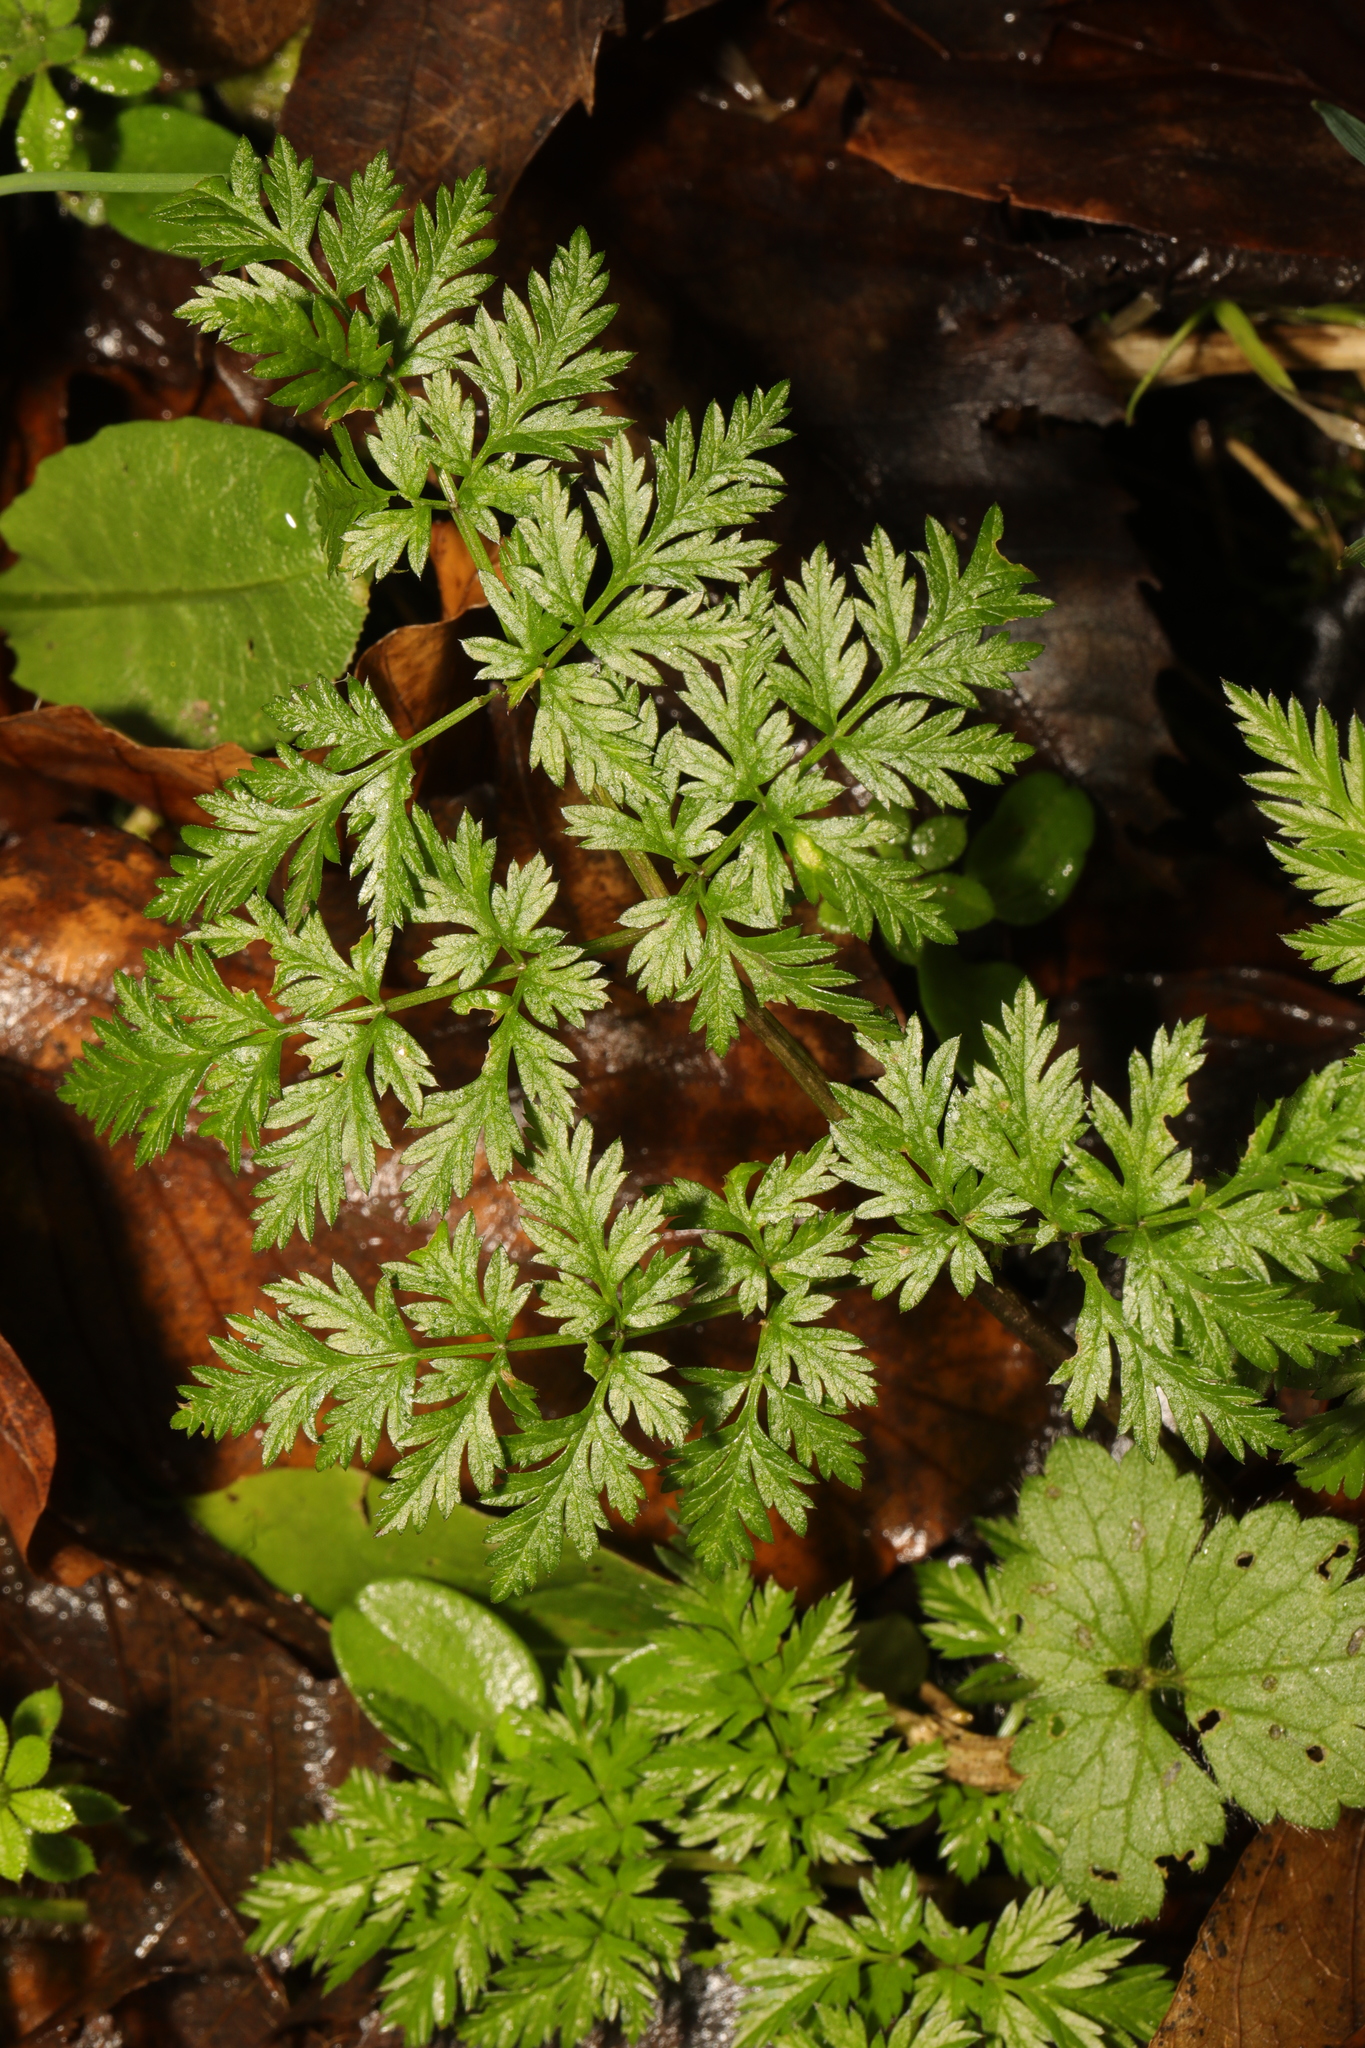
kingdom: Plantae
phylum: Tracheophyta
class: Magnoliopsida
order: Apiales
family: Apiaceae
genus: Anthriscus
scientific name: Anthriscus sylvestris
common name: Cow parsley
